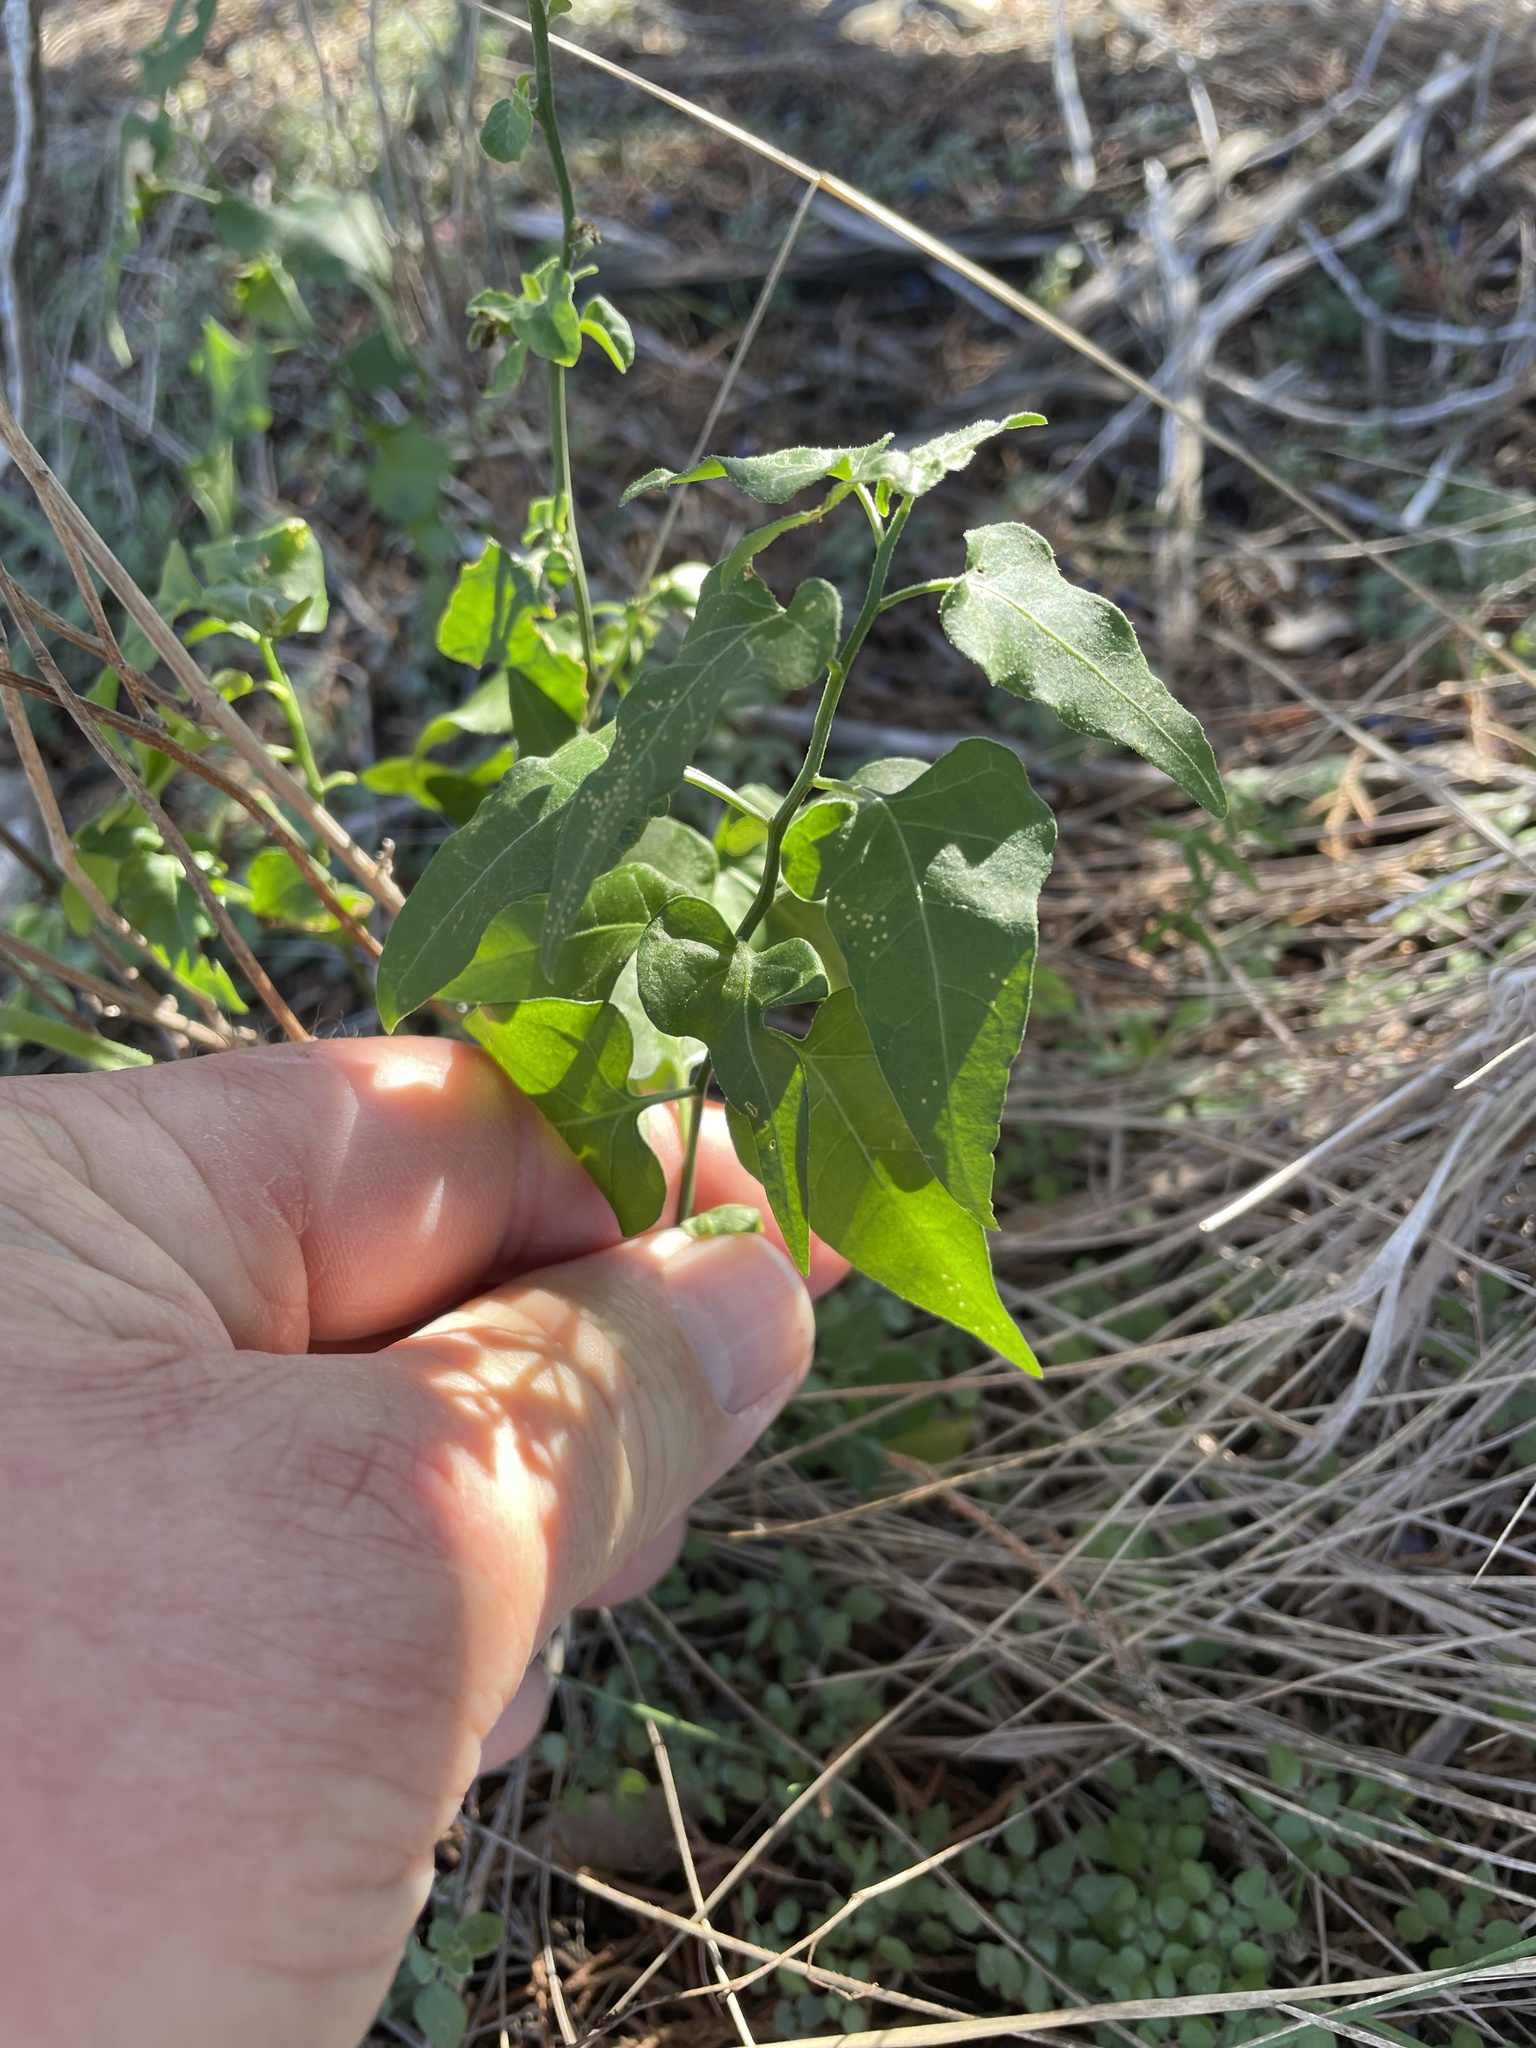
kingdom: Plantae
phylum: Tracheophyta
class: Magnoliopsida
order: Solanales
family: Solanaceae
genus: Solanum
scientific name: Solanum triquetrum
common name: Texas nightshade
